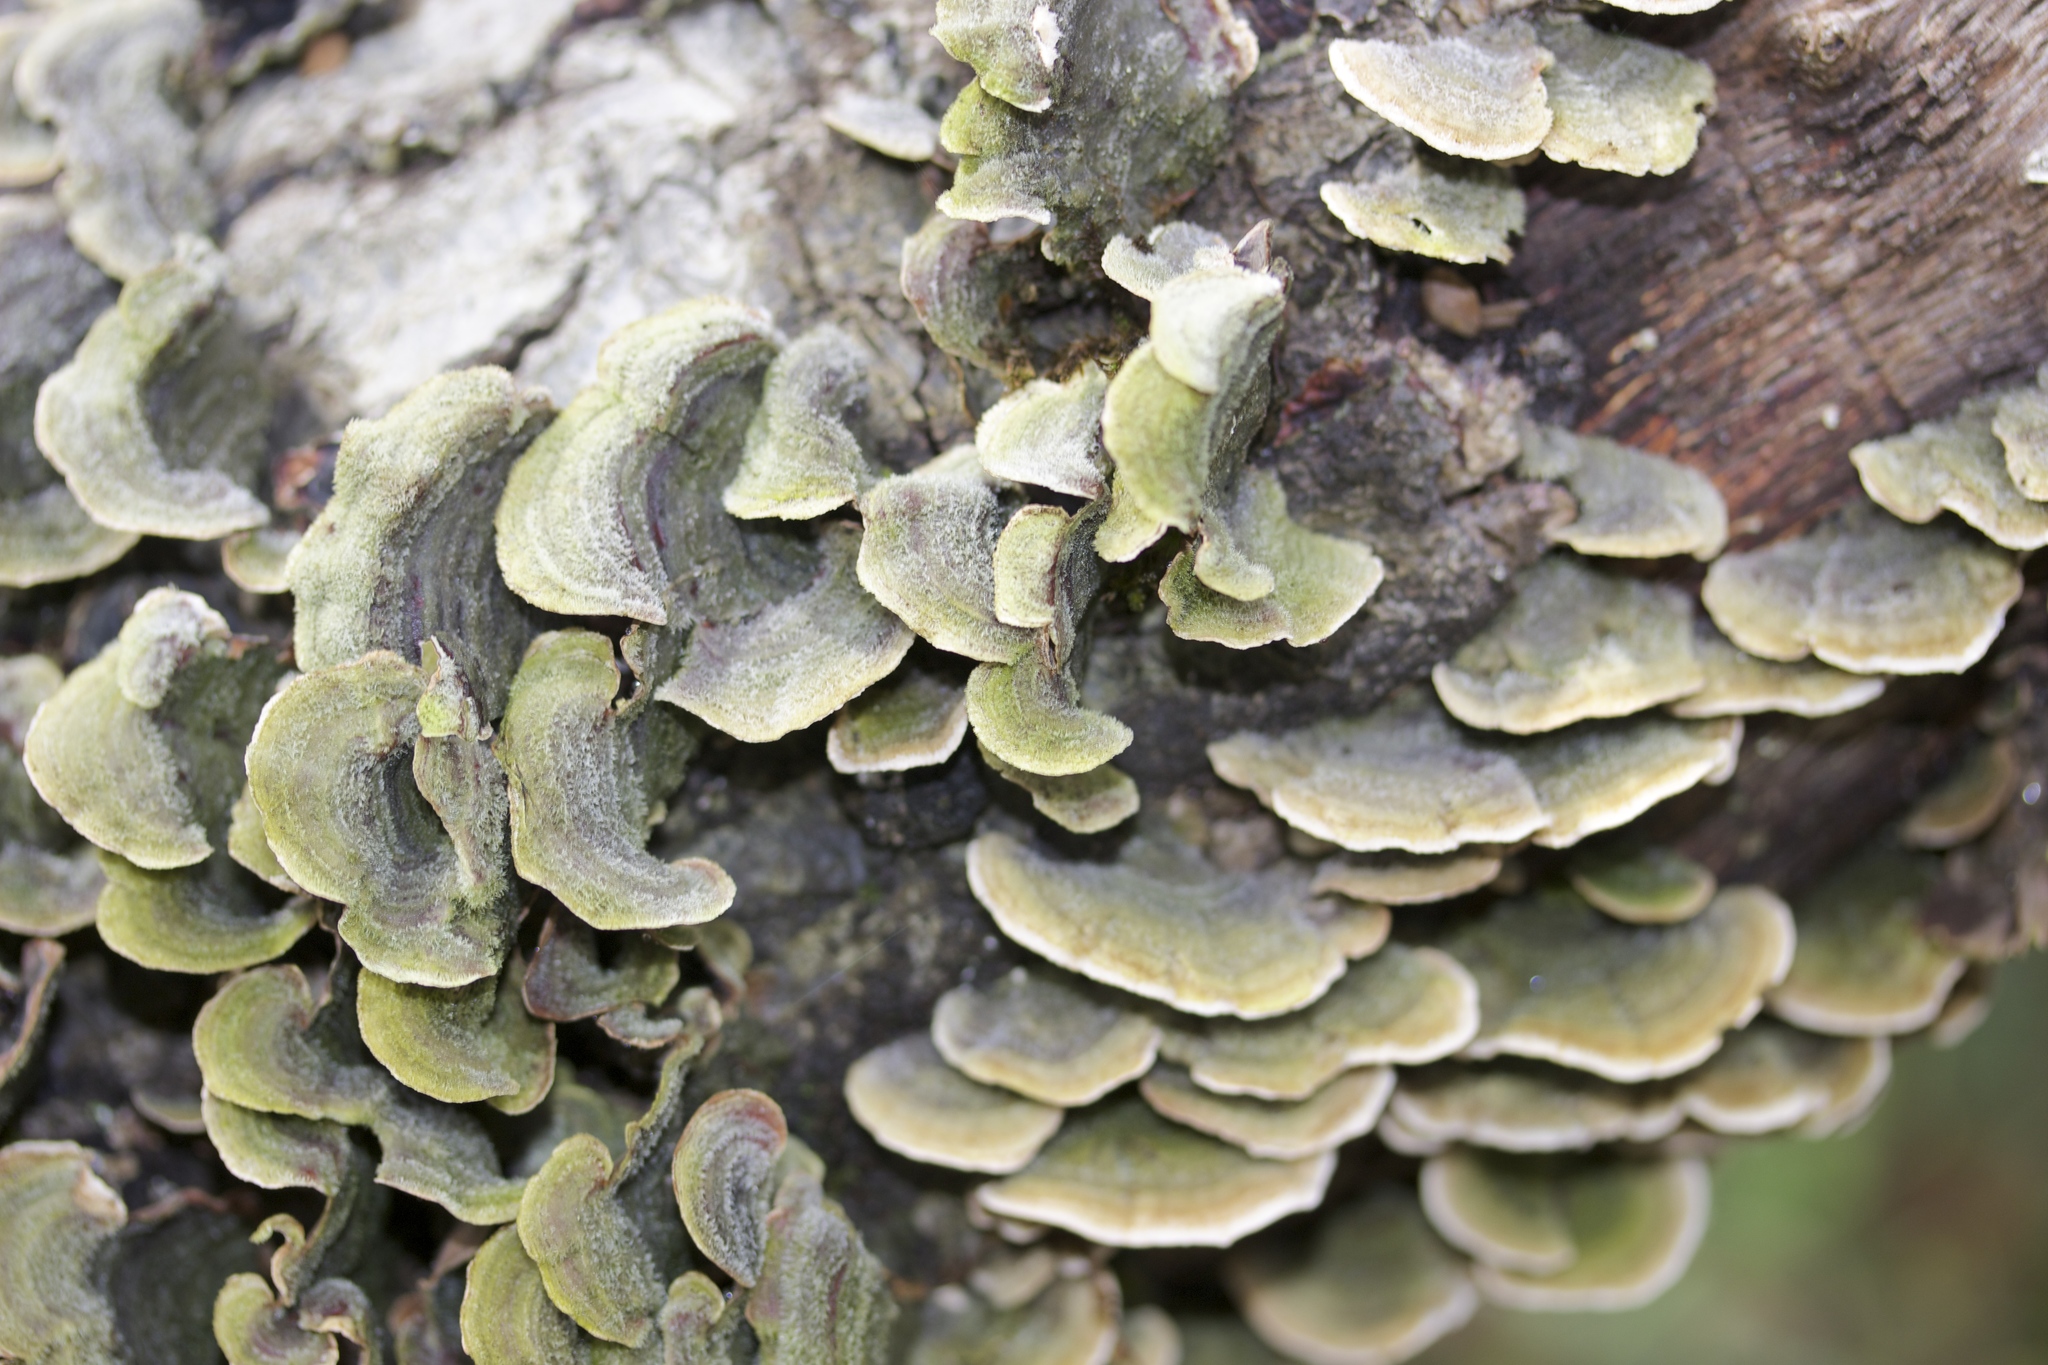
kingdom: Fungi
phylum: Basidiomycota
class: Agaricomycetes
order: Russulales
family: Stereaceae
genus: Stereum
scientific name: Stereum hirsutum
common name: Hairy curtain crust
